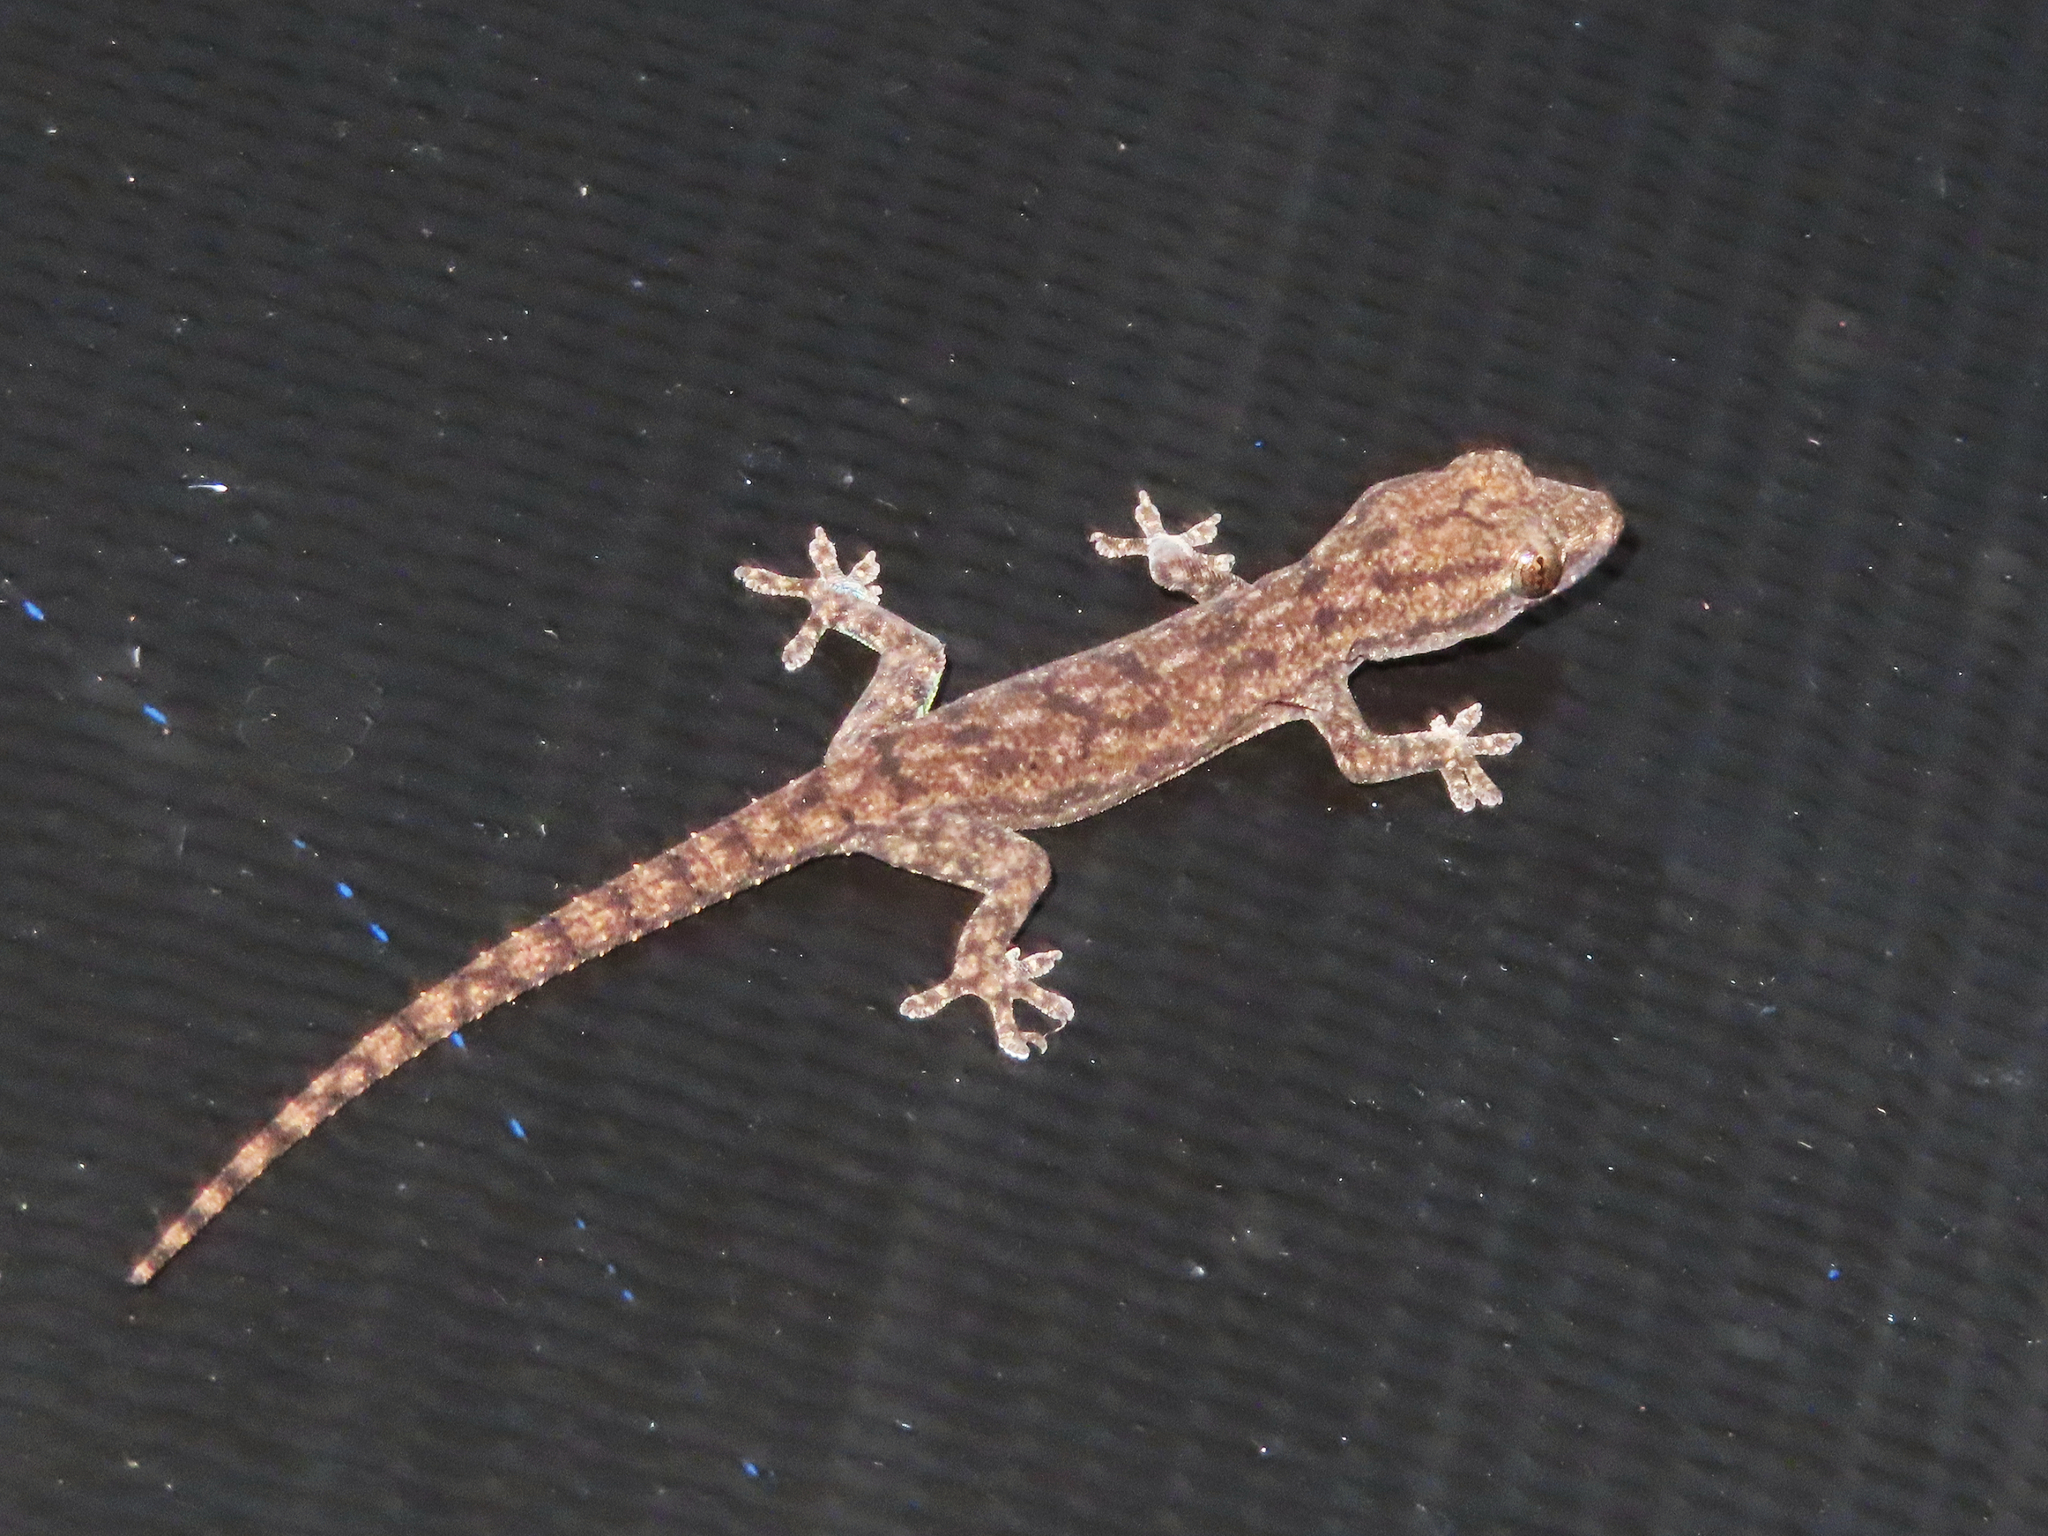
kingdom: Animalia
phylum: Chordata
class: Squamata
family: Gekkonidae
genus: Hemidactylus
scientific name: Hemidactylus frenatus
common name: Common house gecko
